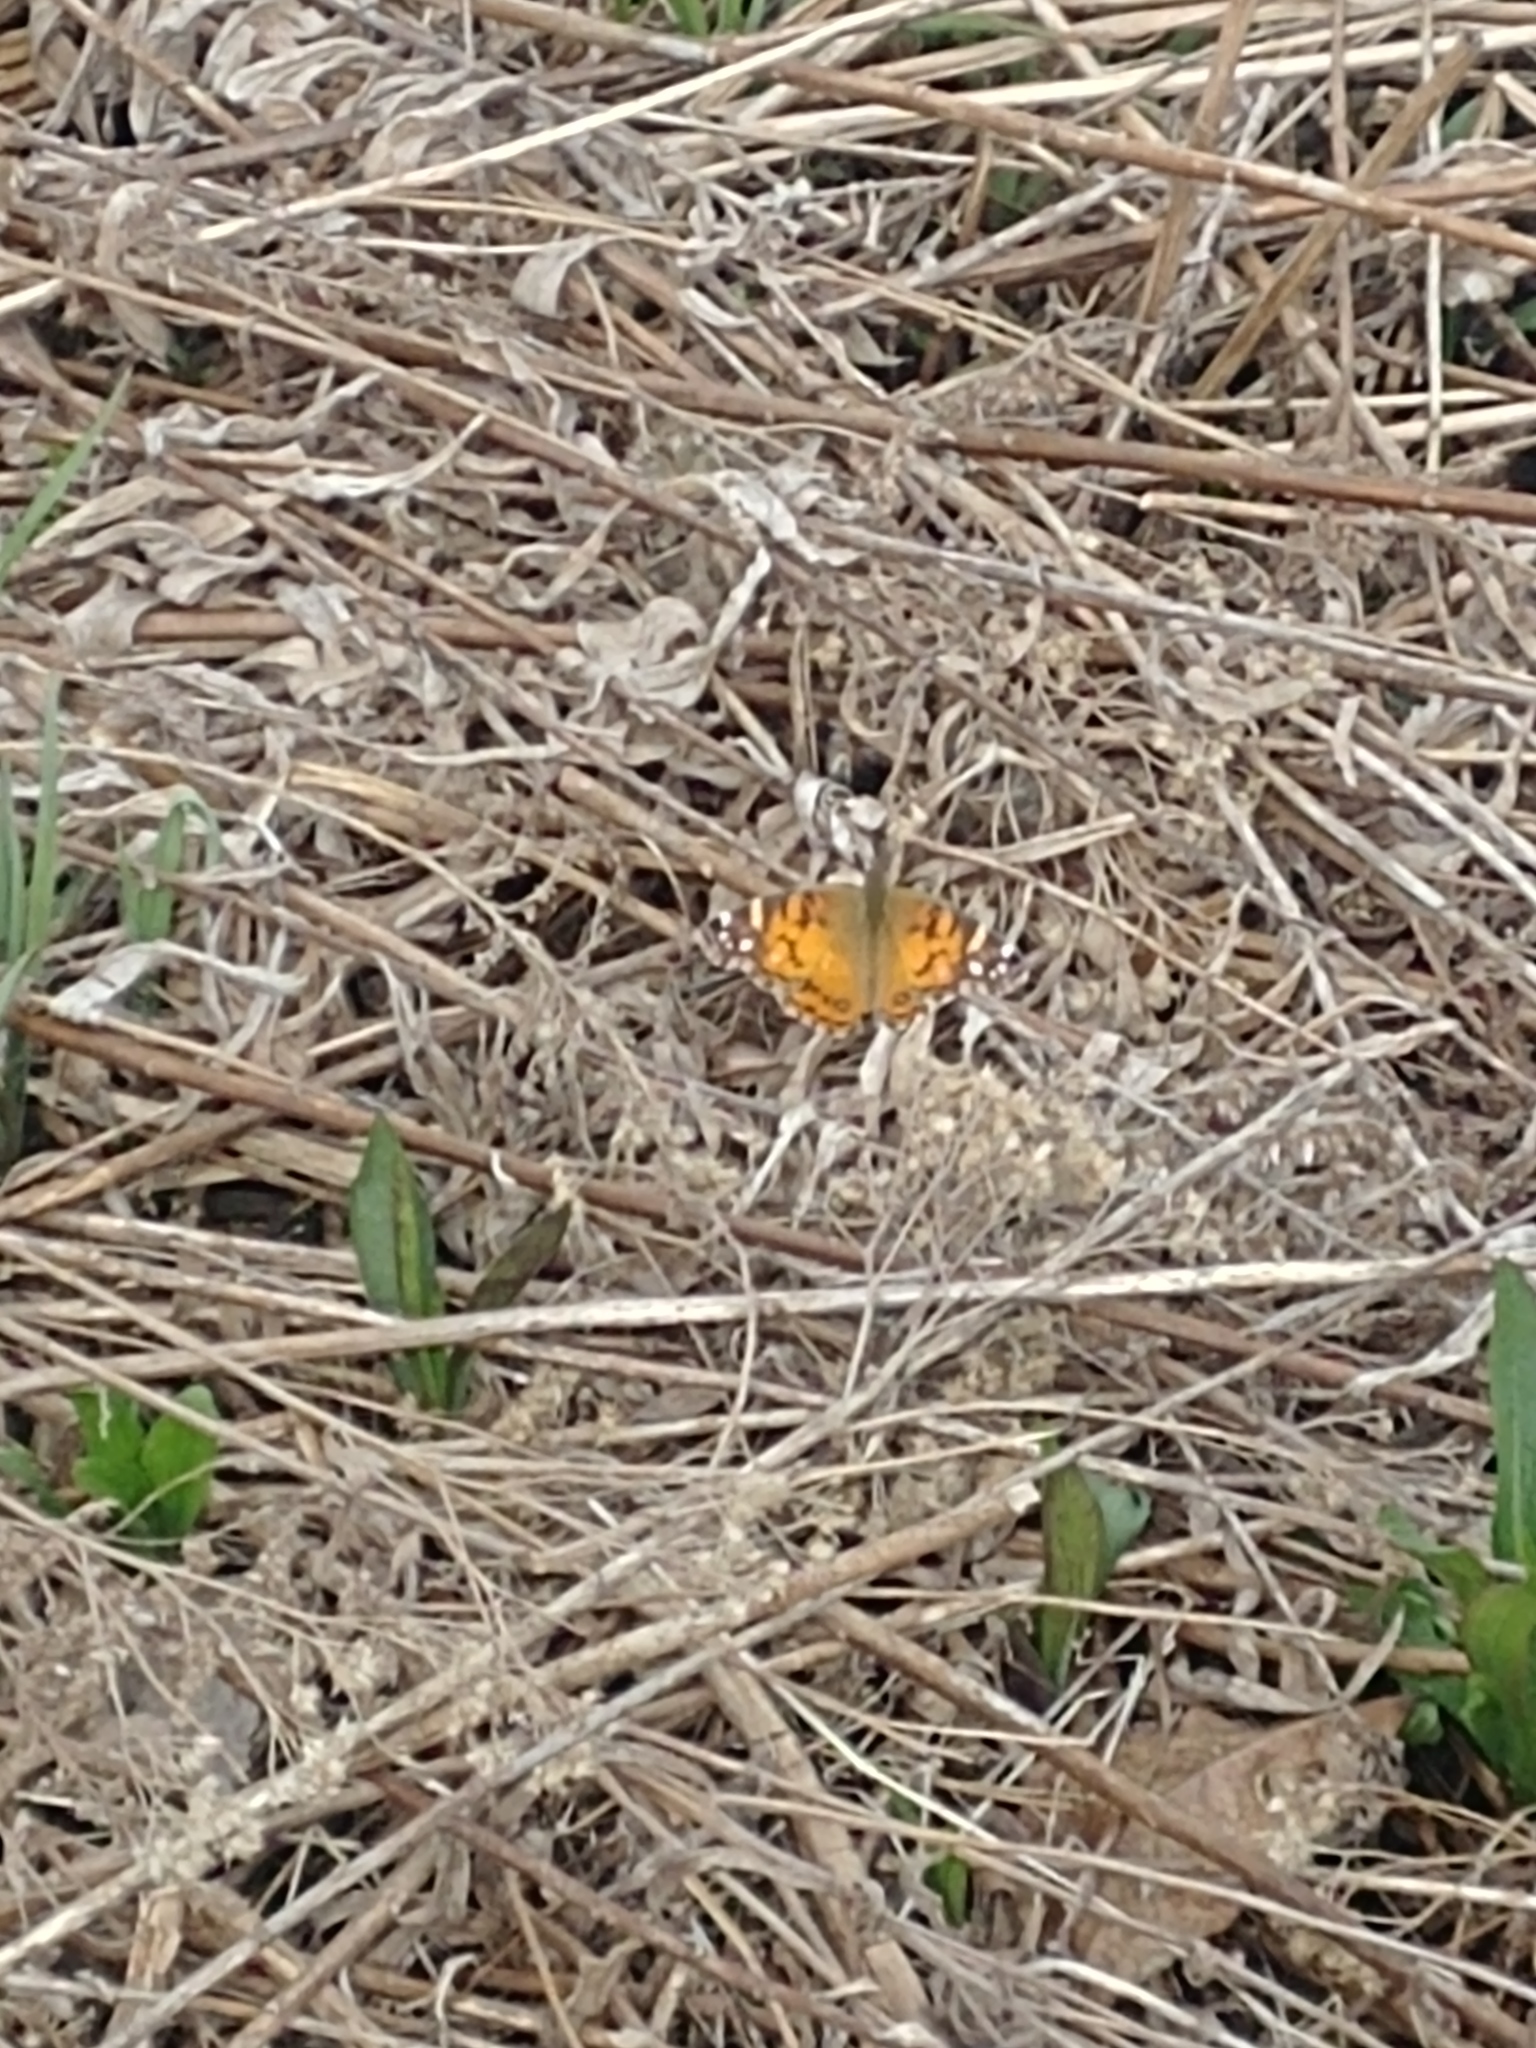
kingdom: Animalia
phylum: Arthropoda
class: Insecta
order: Lepidoptera
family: Nymphalidae
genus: Vanessa
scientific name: Vanessa virginiensis
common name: American lady
